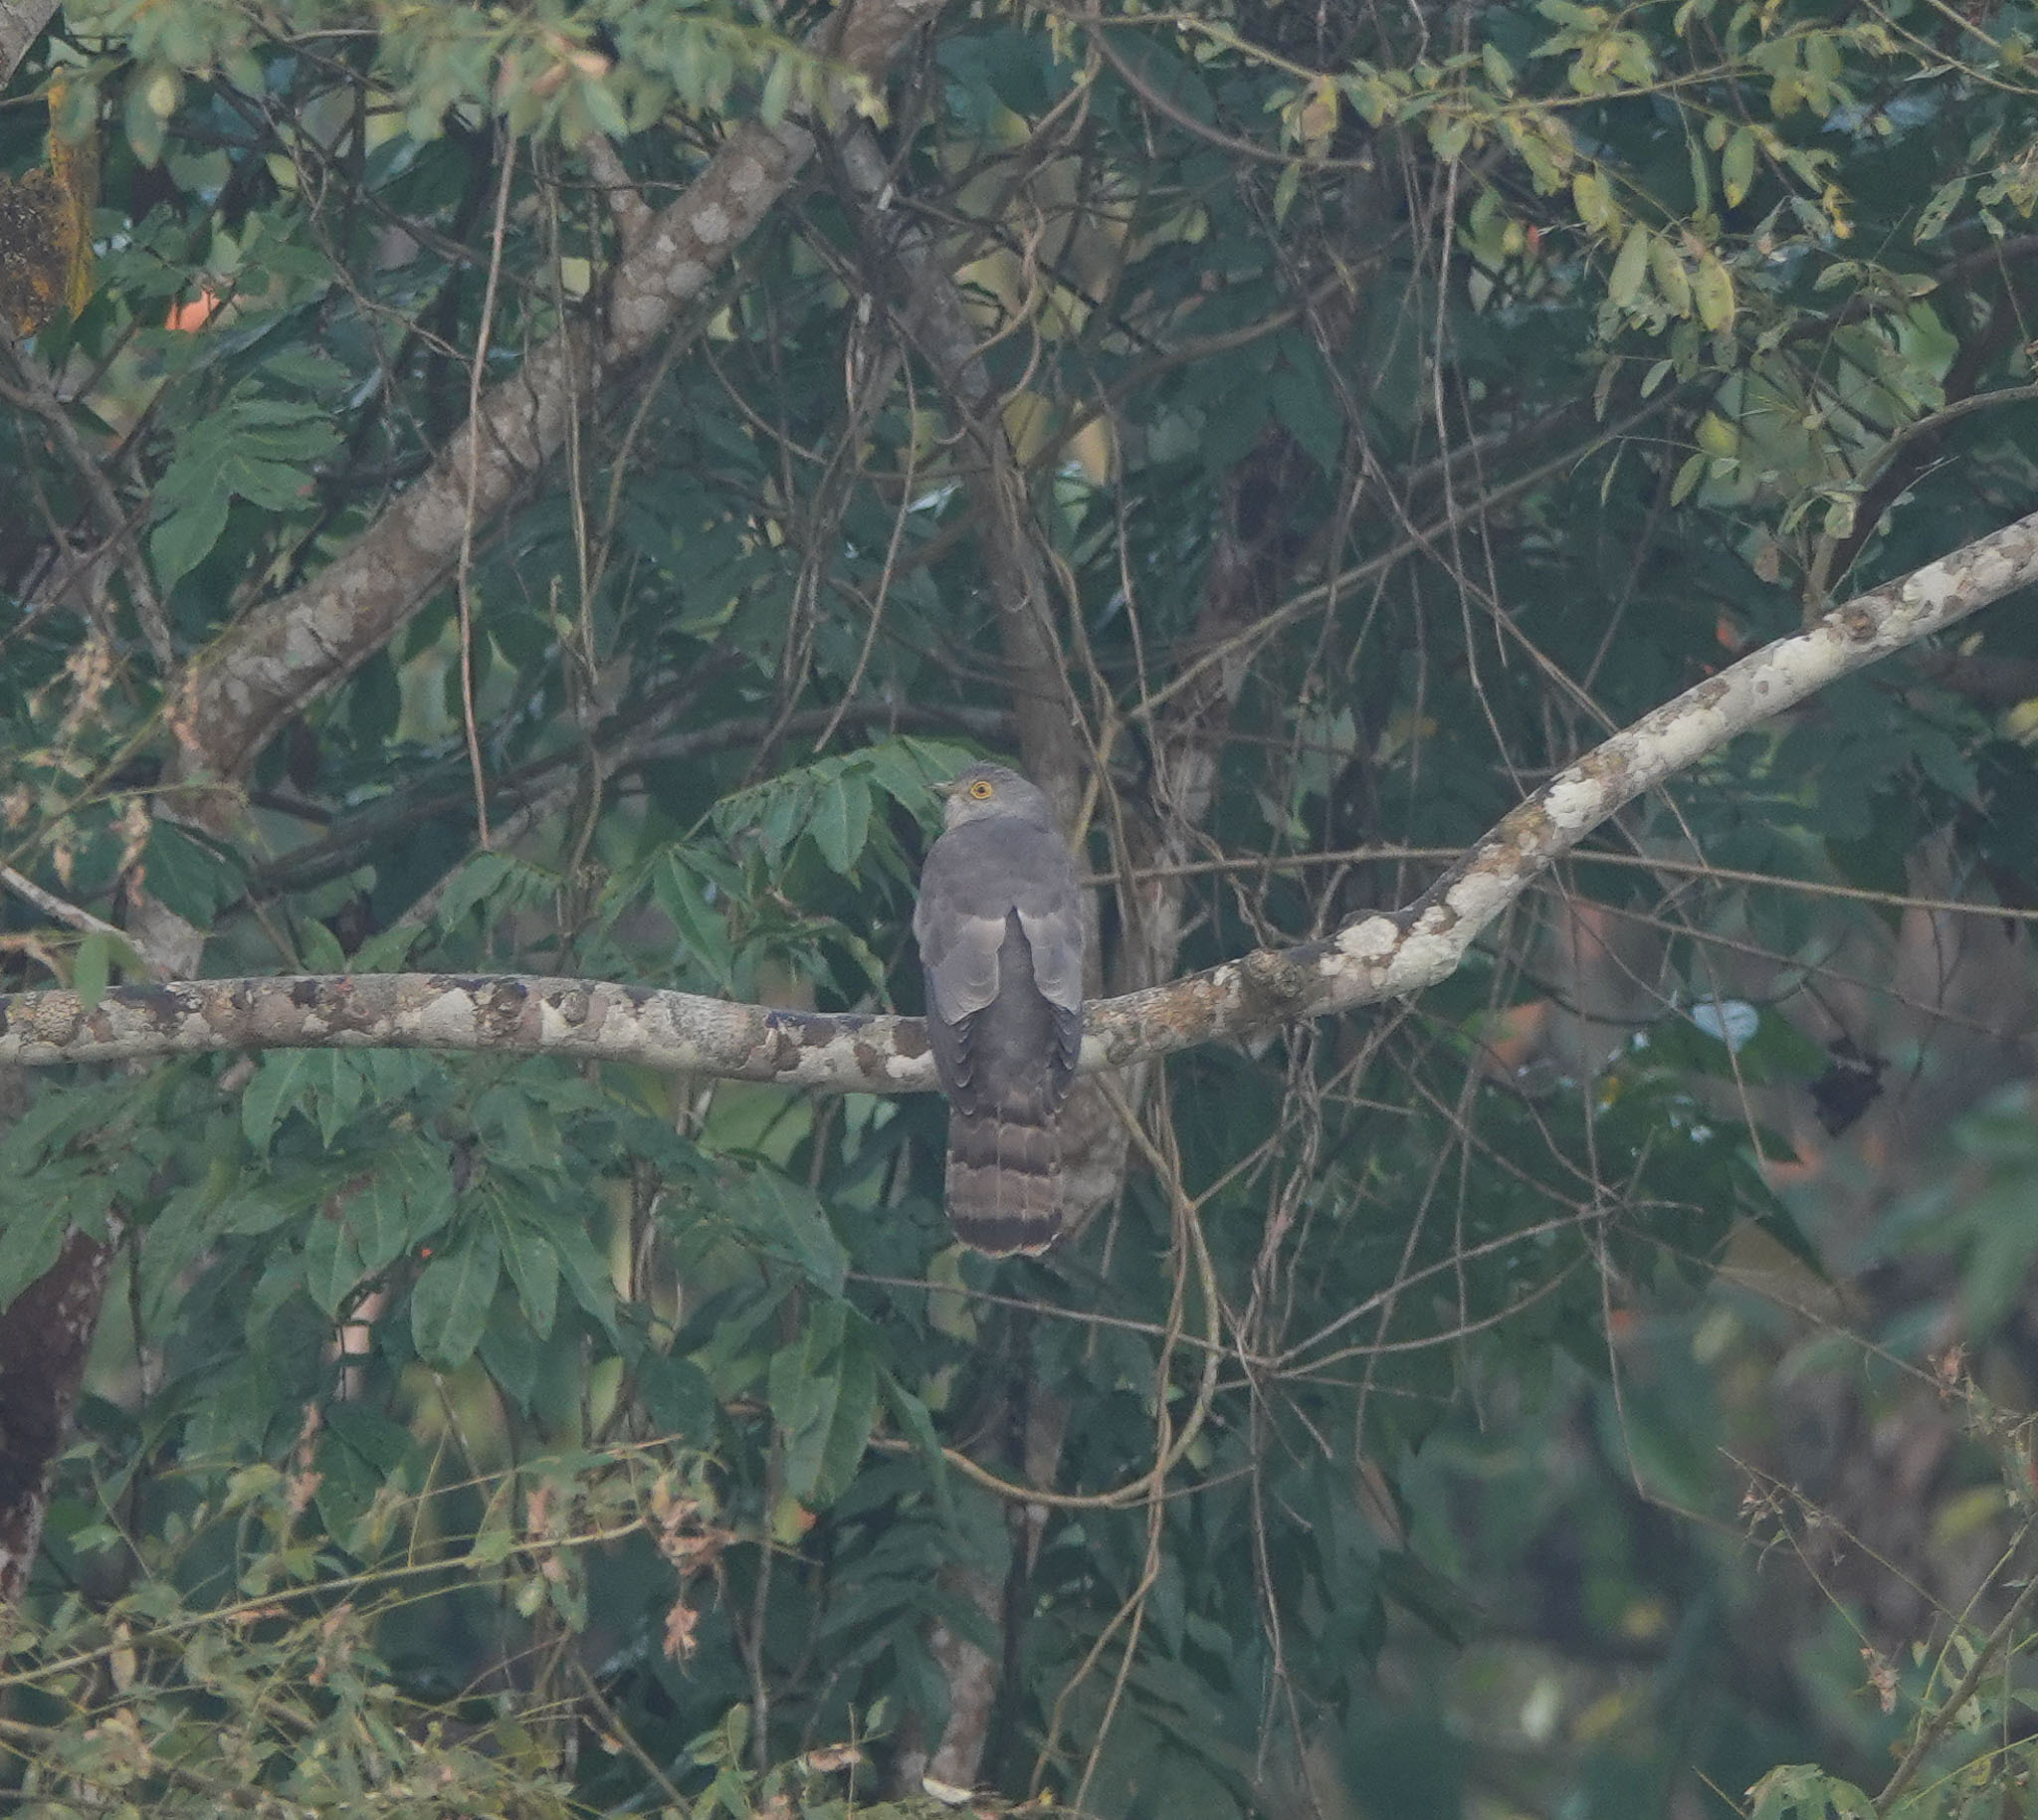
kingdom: Animalia
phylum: Chordata
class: Aves
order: Cuculiformes
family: Cuculidae
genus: Cuculus
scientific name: Cuculus varius
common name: Common hawk cuckoo
